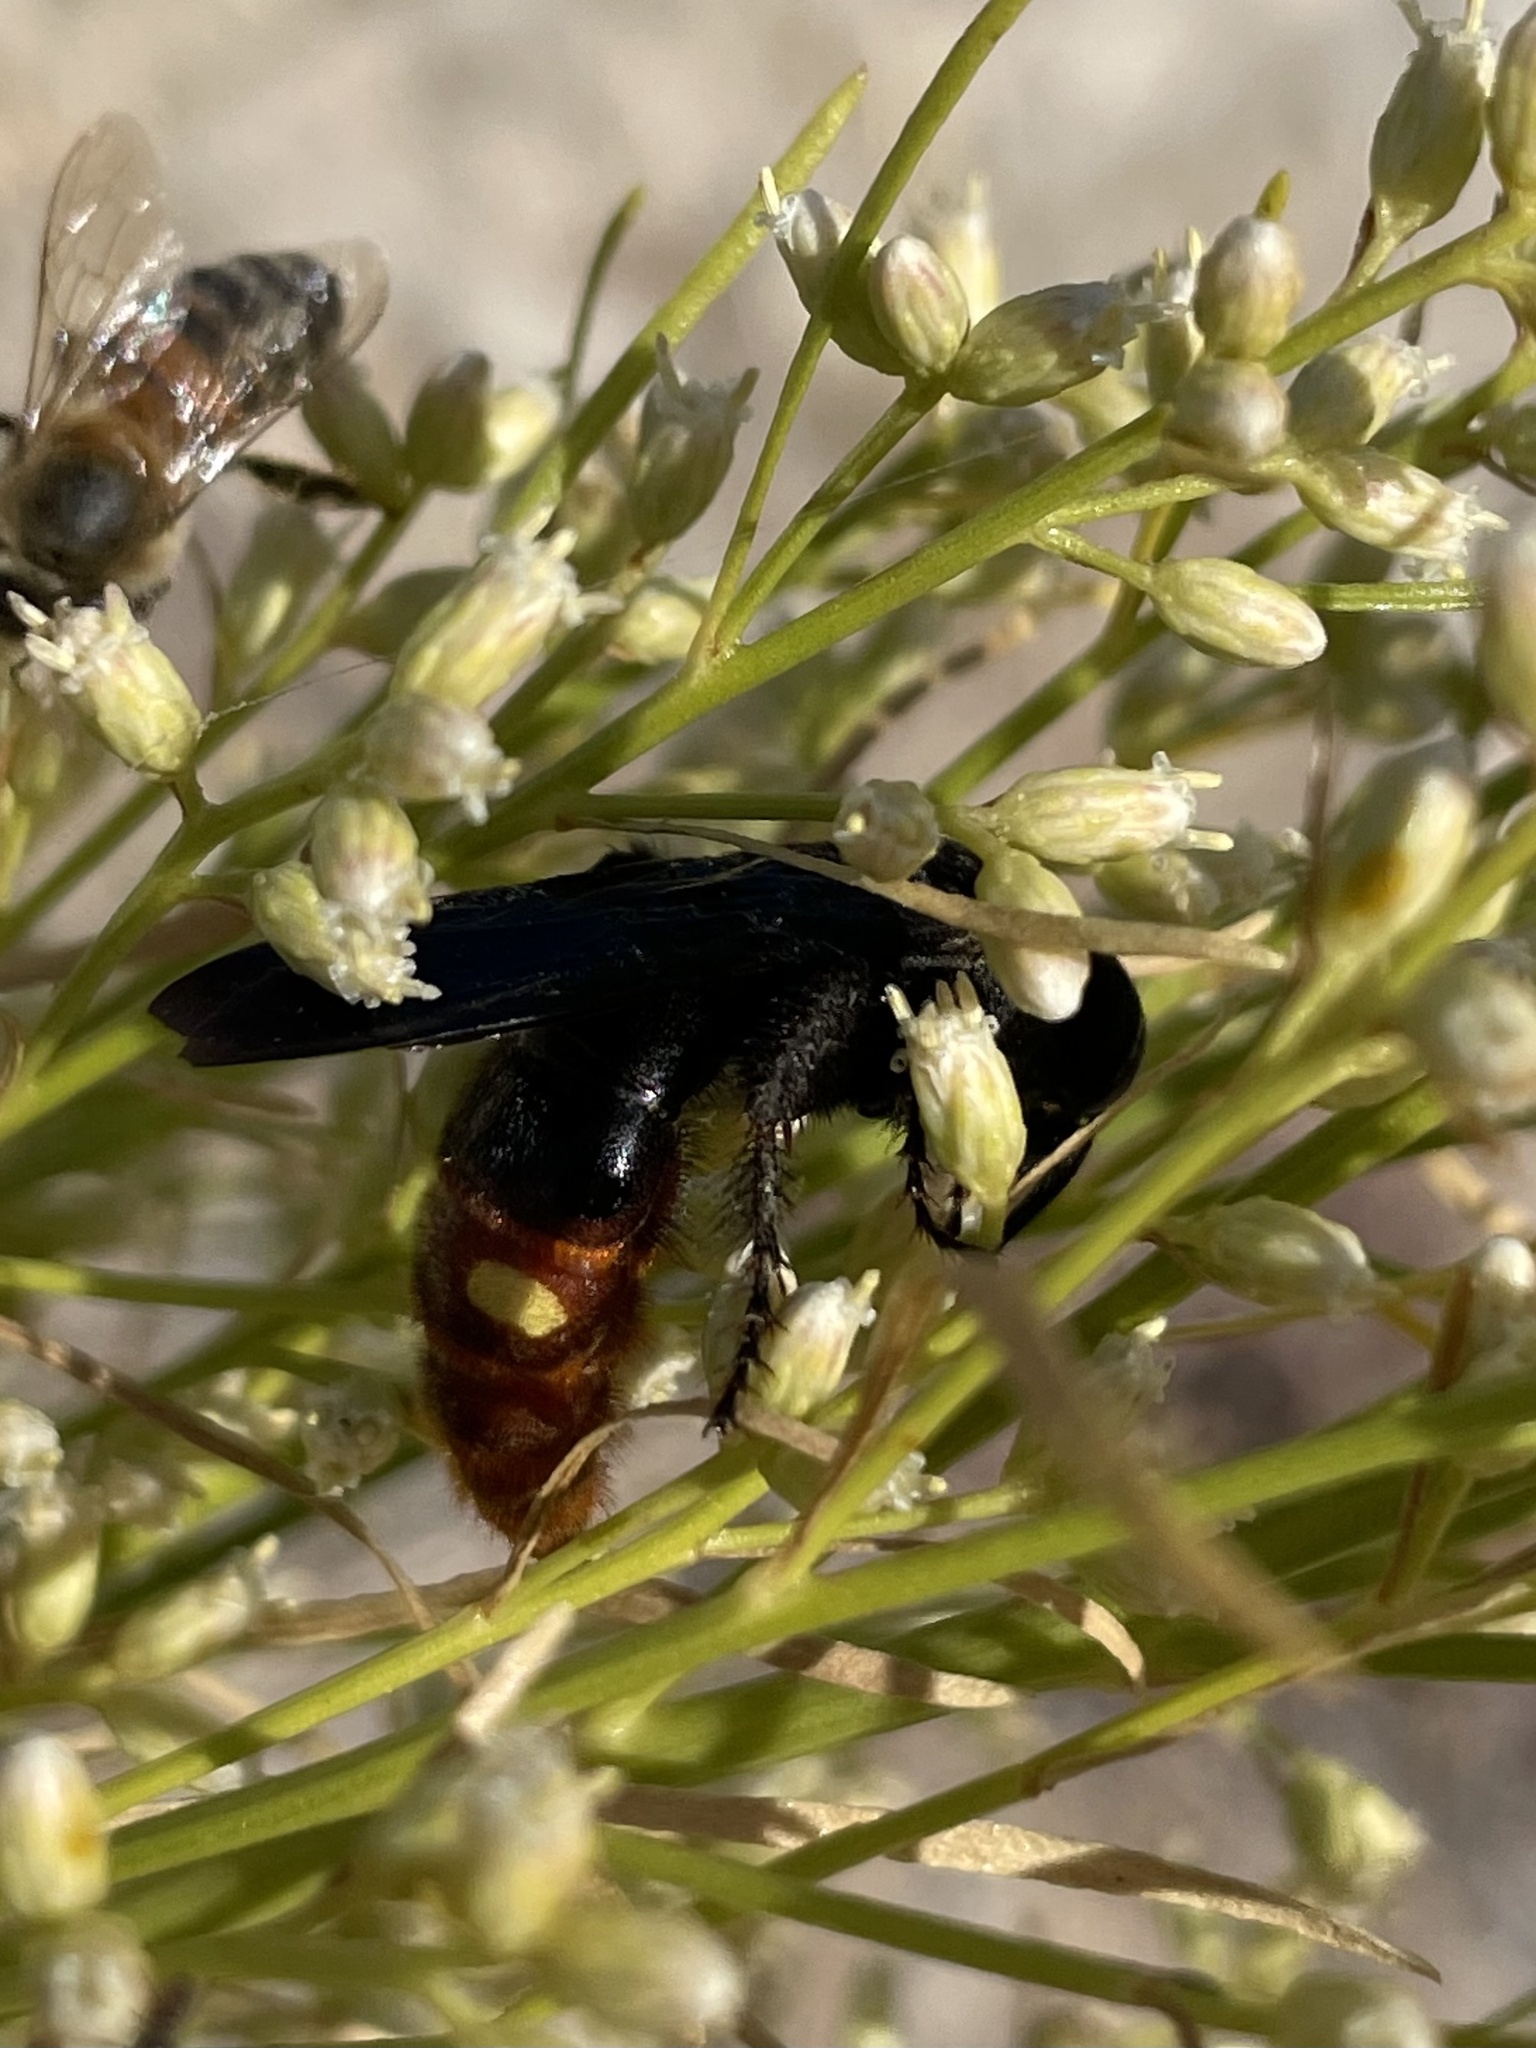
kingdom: Animalia
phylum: Arthropoda
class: Insecta
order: Hymenoptera
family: Scoliidae
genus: Scolia
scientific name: Scolia dubia
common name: Blue-winged scoliid wasp
